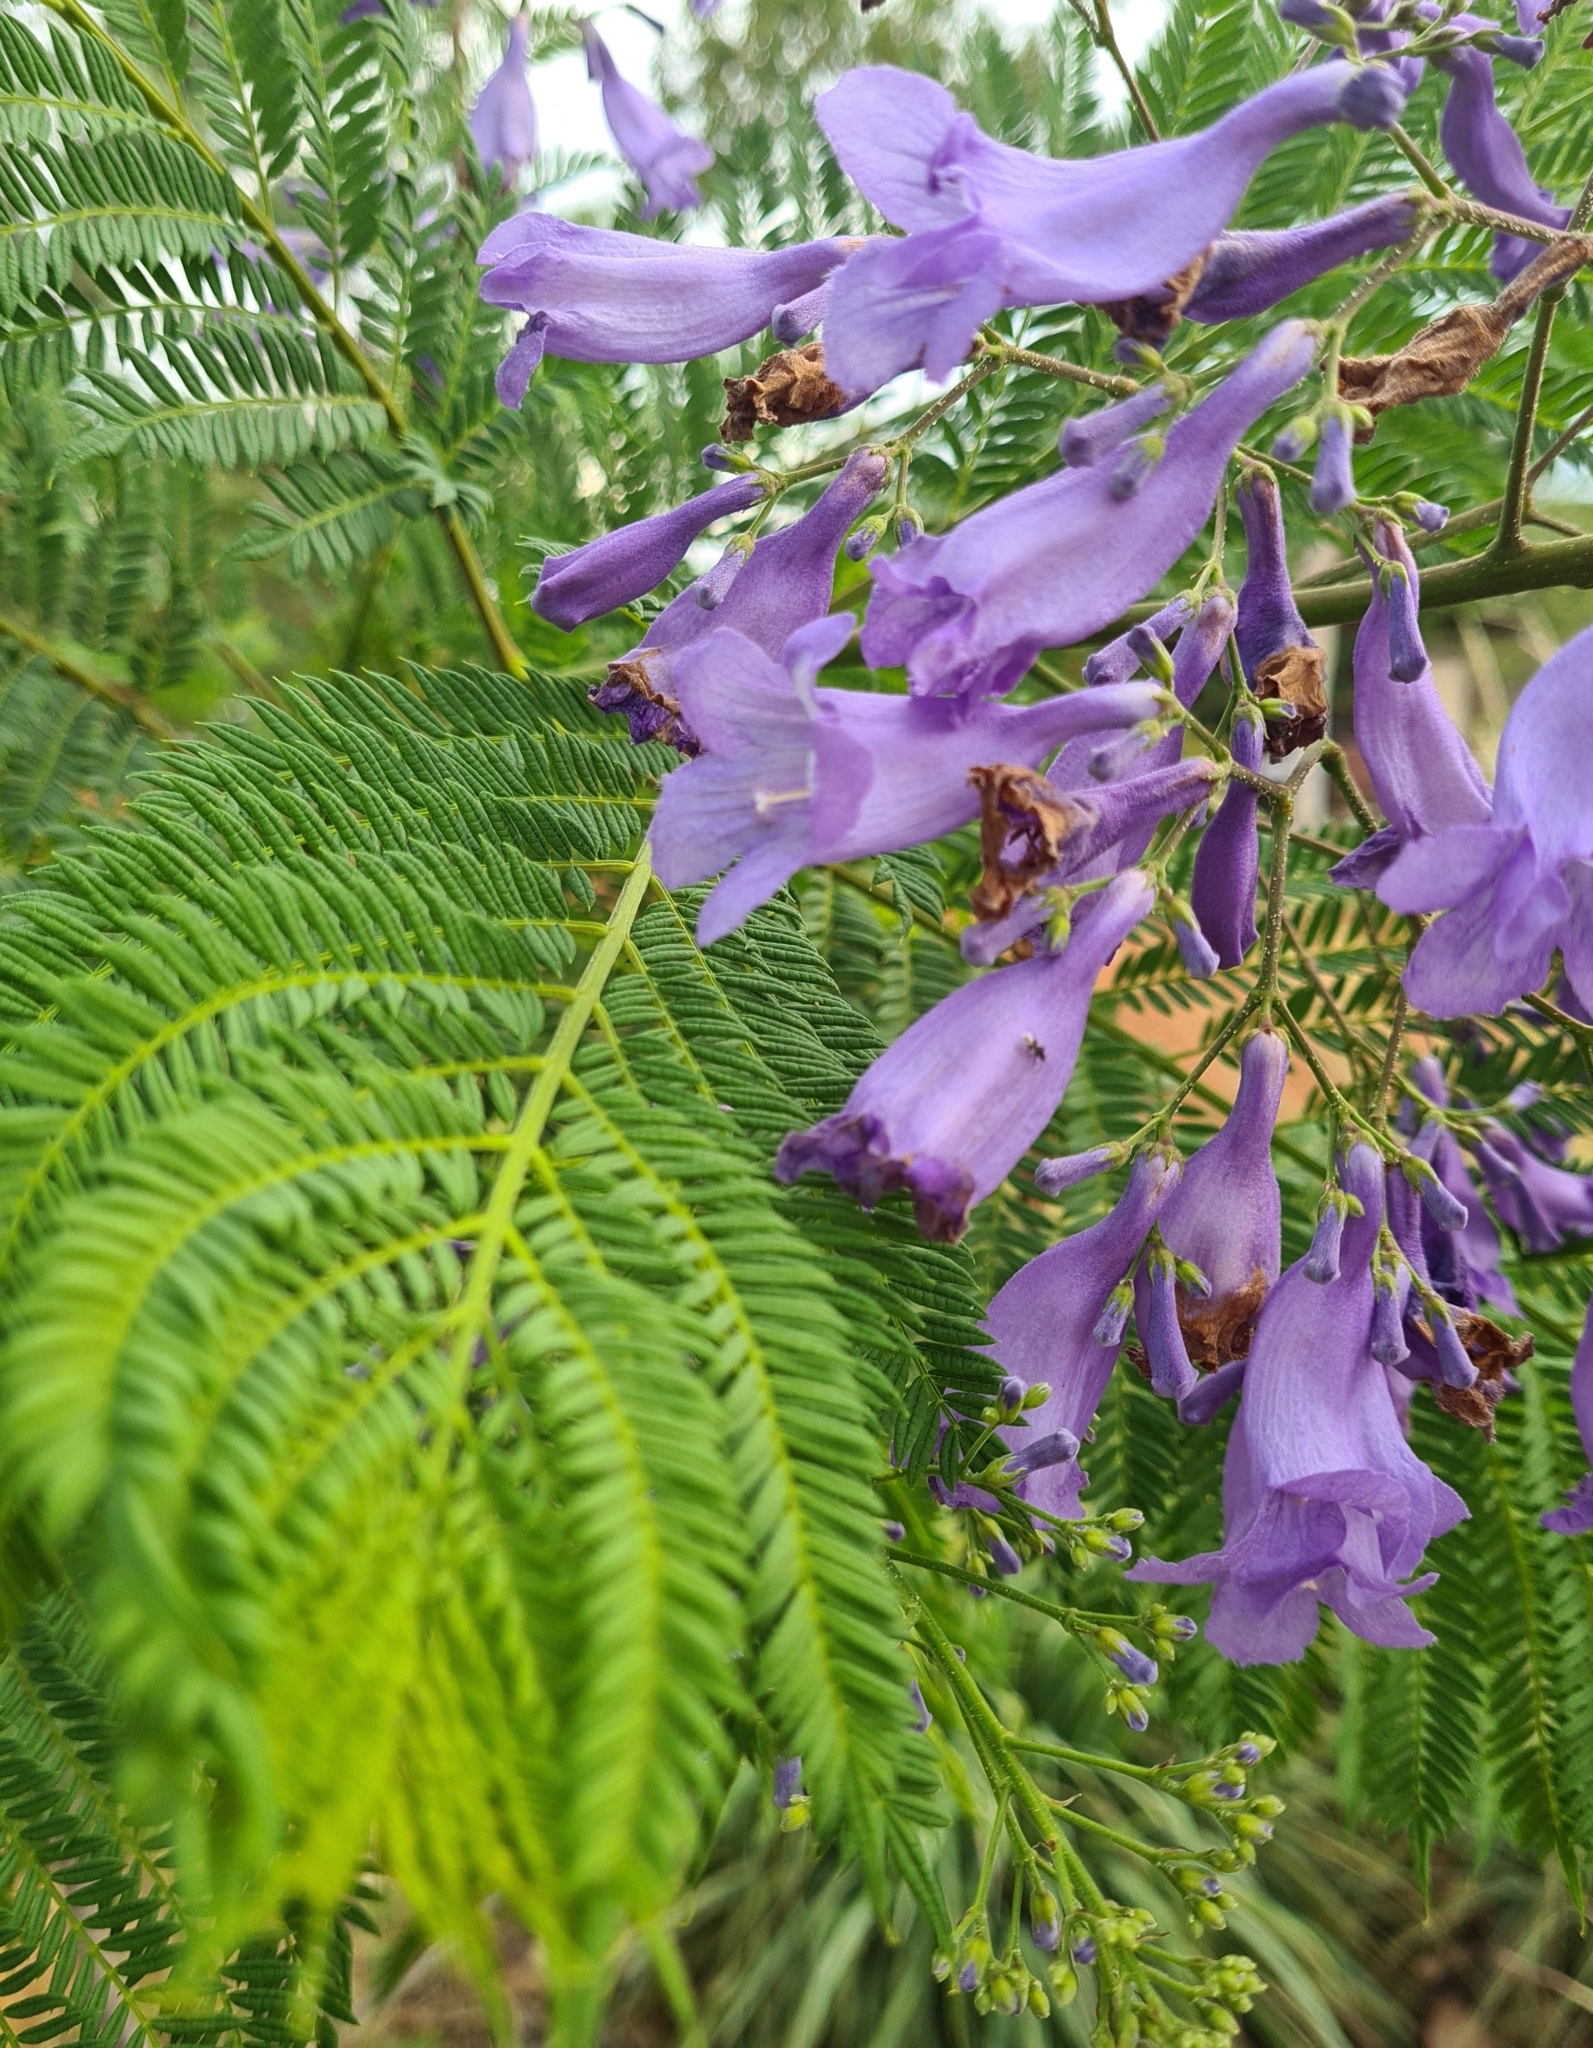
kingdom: Plantae
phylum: Tracheophyta
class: Magnoliopsida
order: Lamiales
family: Bignoniaceae
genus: Jacaranda
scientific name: Jacaranda mimosifolia
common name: Black poui
